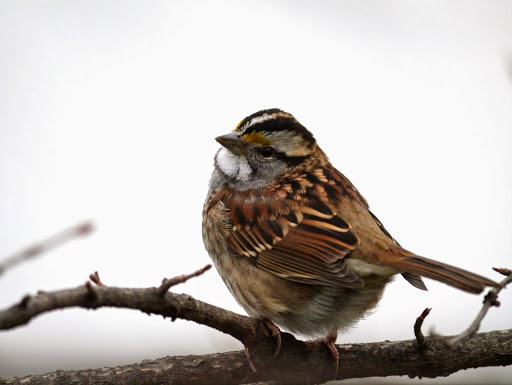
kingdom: Animalia
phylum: Chordata
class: Aves
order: Passeriformes
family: Passerellidae
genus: Zonotrichia
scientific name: Zonotrichia albicollis
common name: White-throated sparrow
